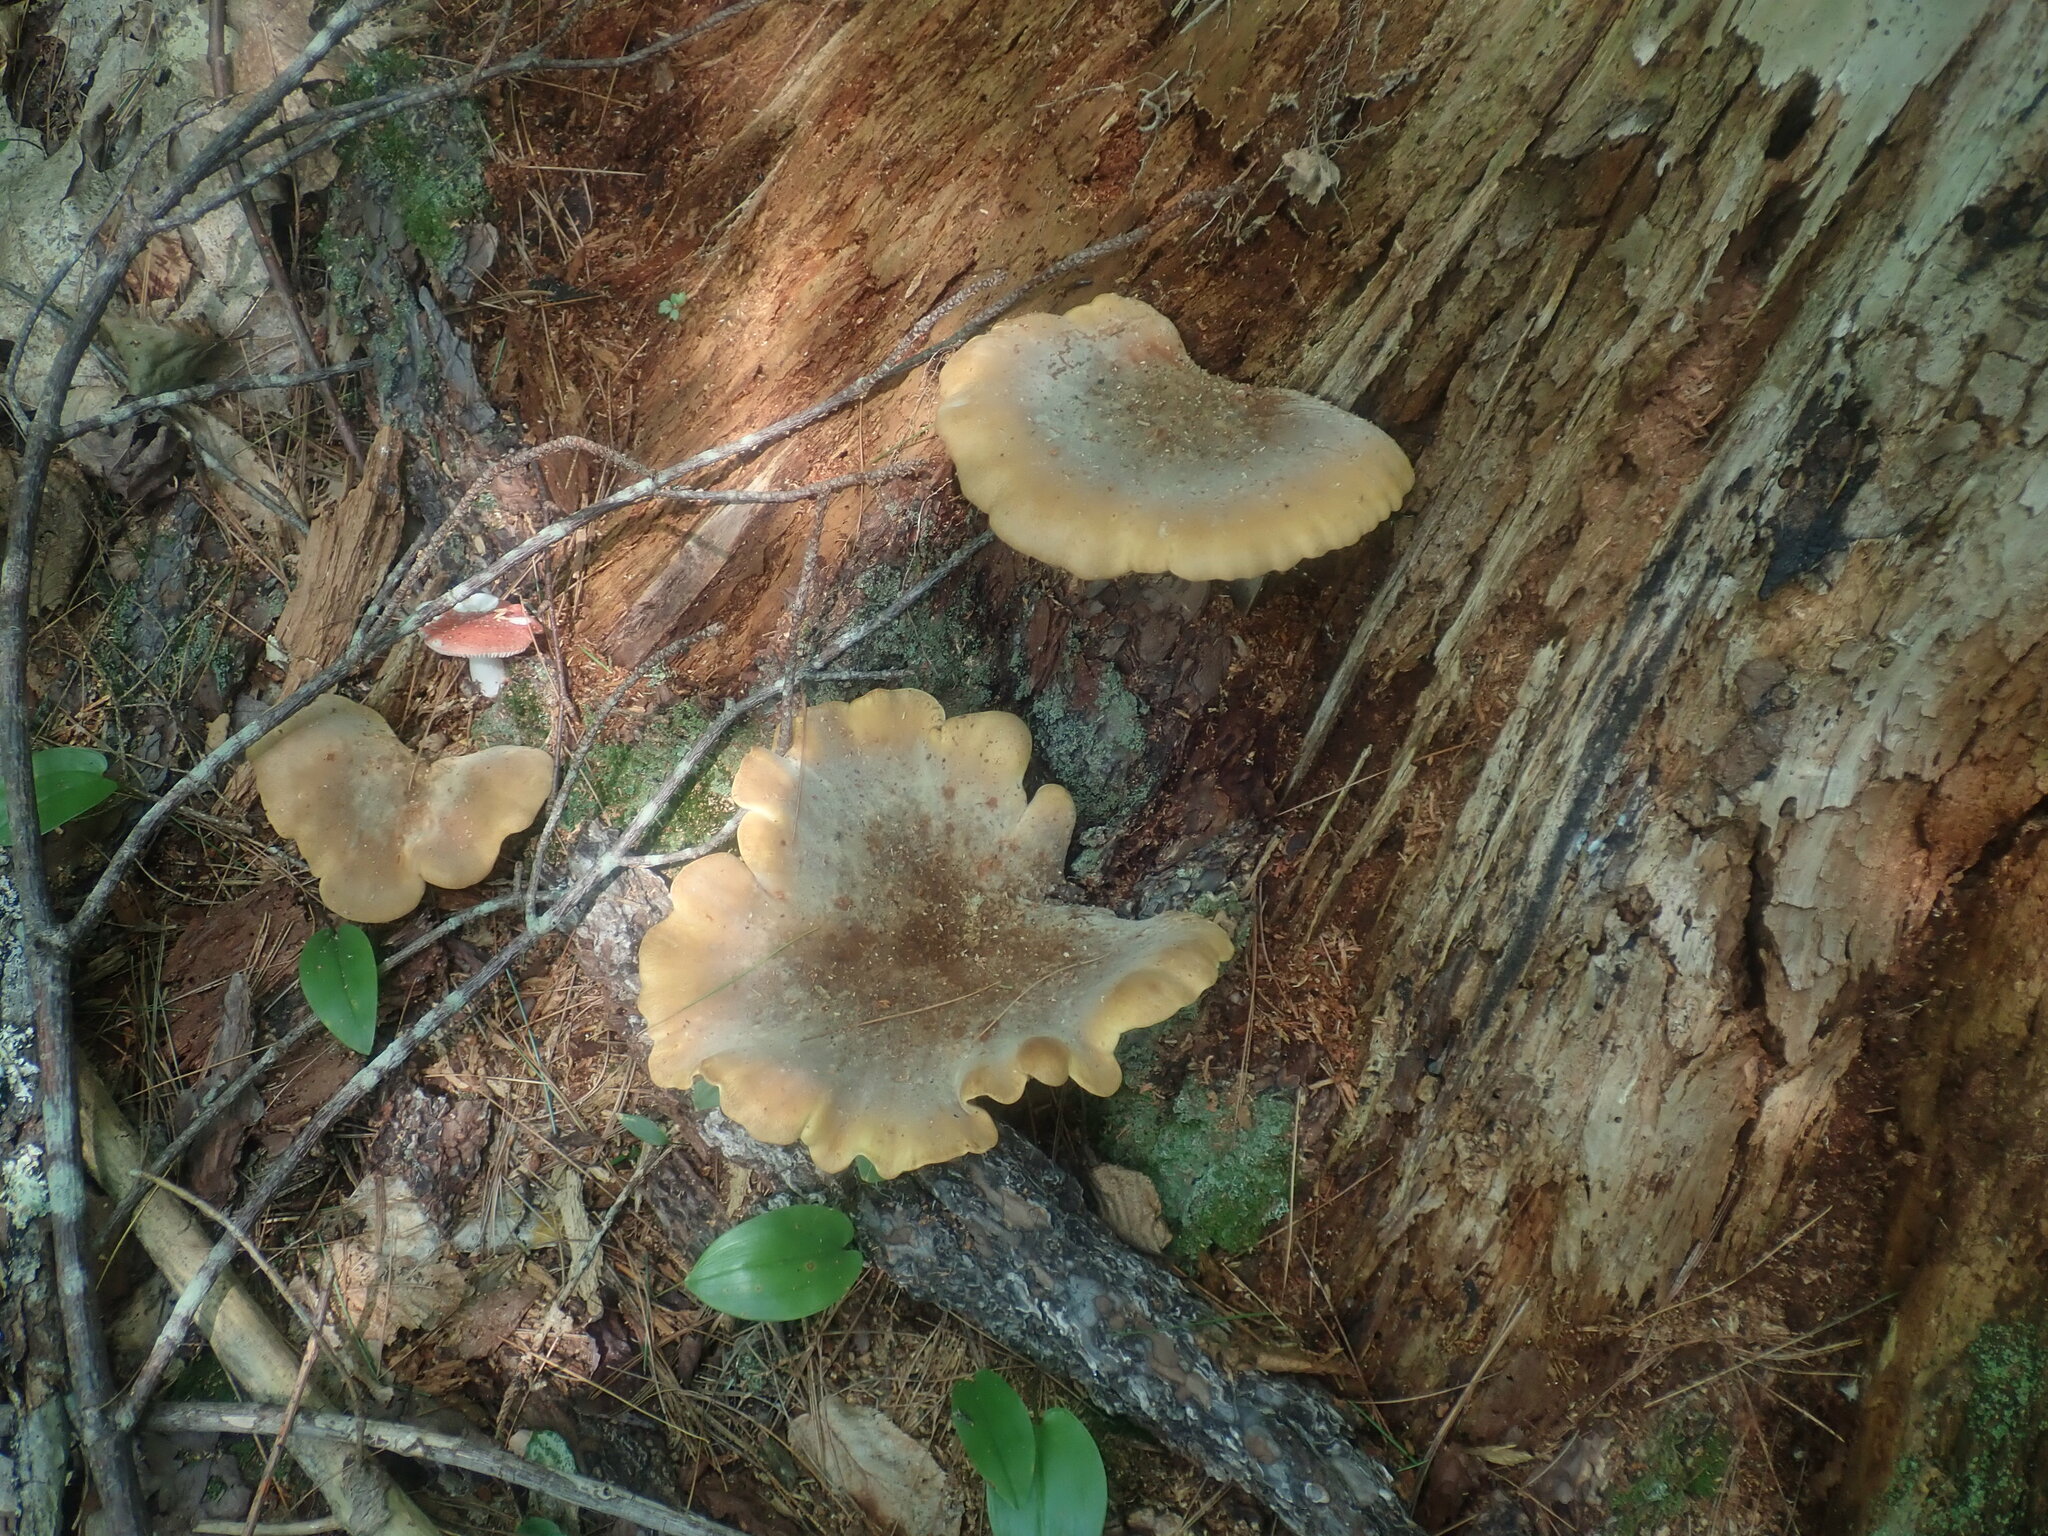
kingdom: Fungi
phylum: Basidiomycota
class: Agaricomycetes
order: Boletales
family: Tapinellaceae
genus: Tapinella
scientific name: Tapinella atrotomentosa
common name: Velvet rollrim
